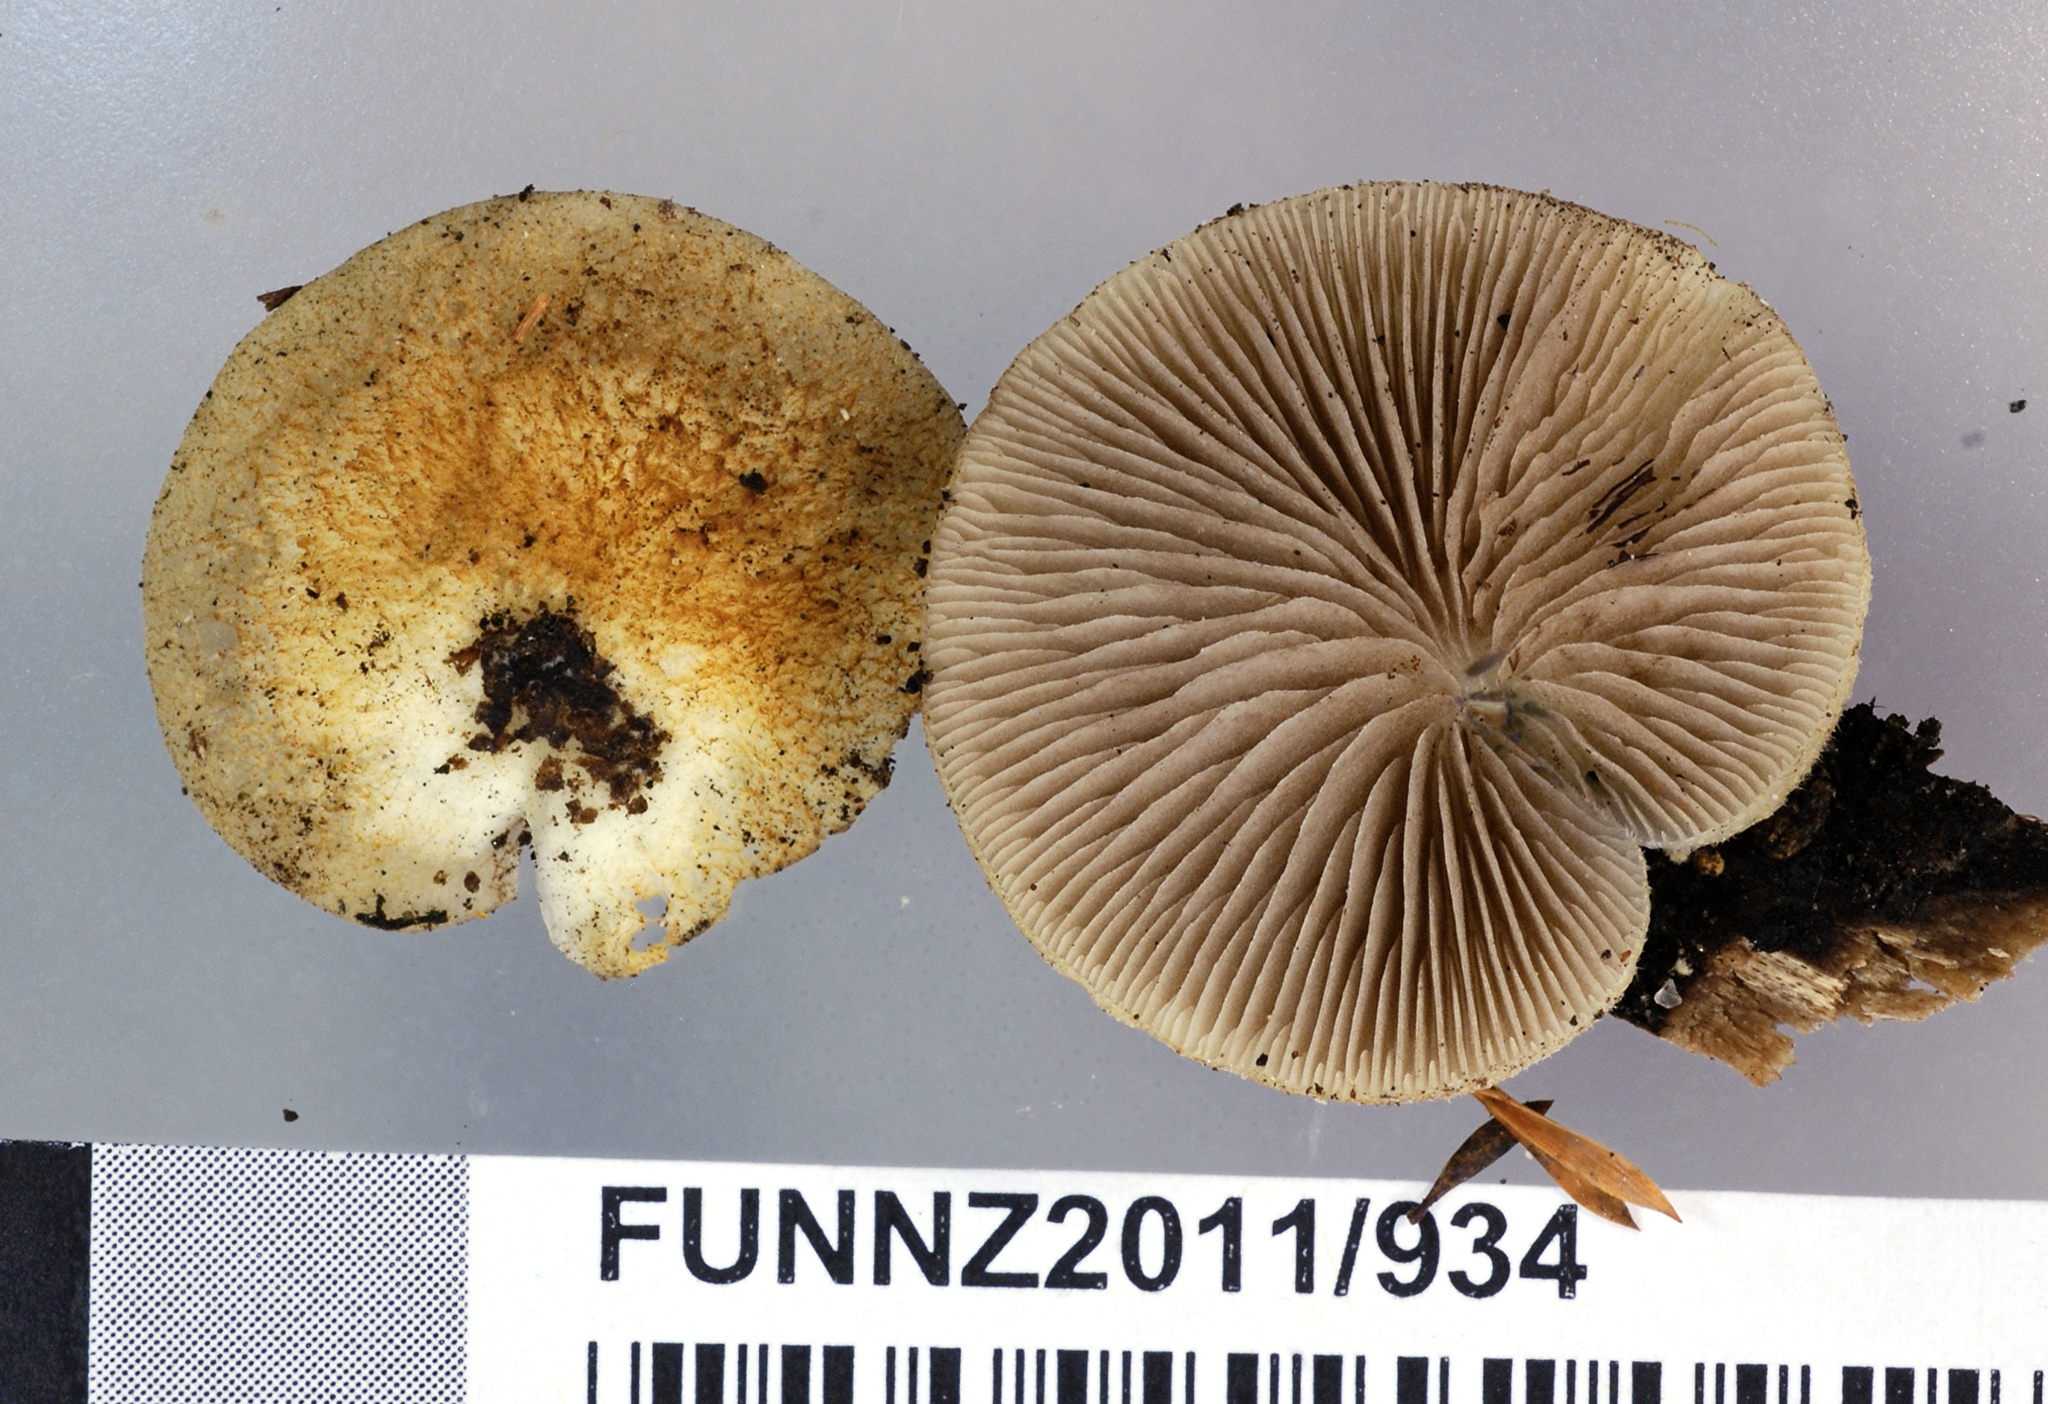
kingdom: Fungi
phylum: Basidiomycota
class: Agaricomycetes
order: Agaricales
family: Crepidotaceae
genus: Crepidotus
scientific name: Crepidotus eucalyptorum
